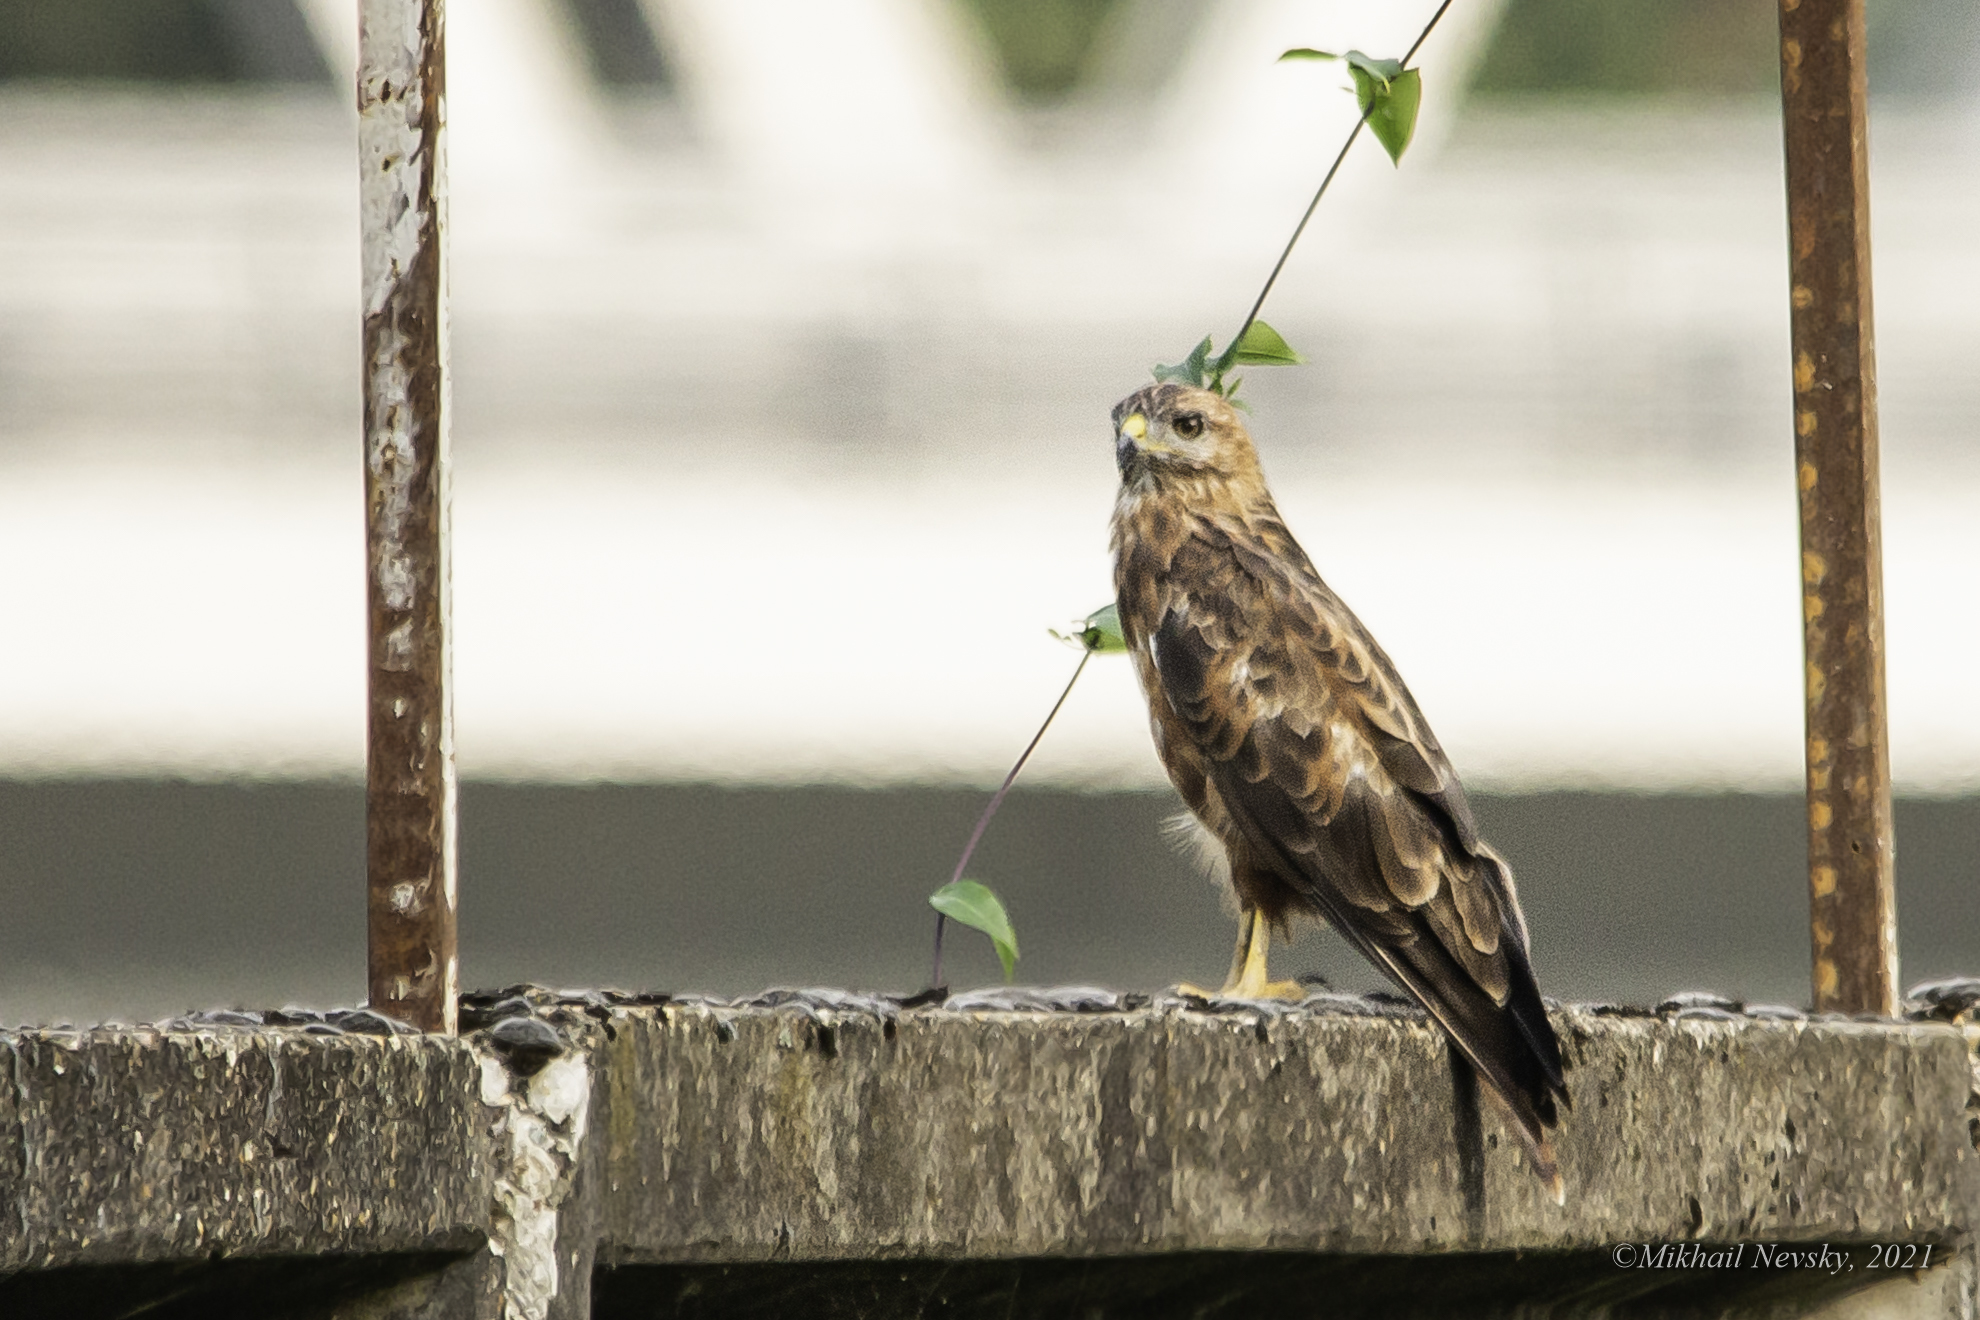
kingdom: Animalia
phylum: Chordata
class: Aves
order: Accipitriformes
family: Accipitridae
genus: Buteo
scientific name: Buteo buteo
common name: Common buzzard
